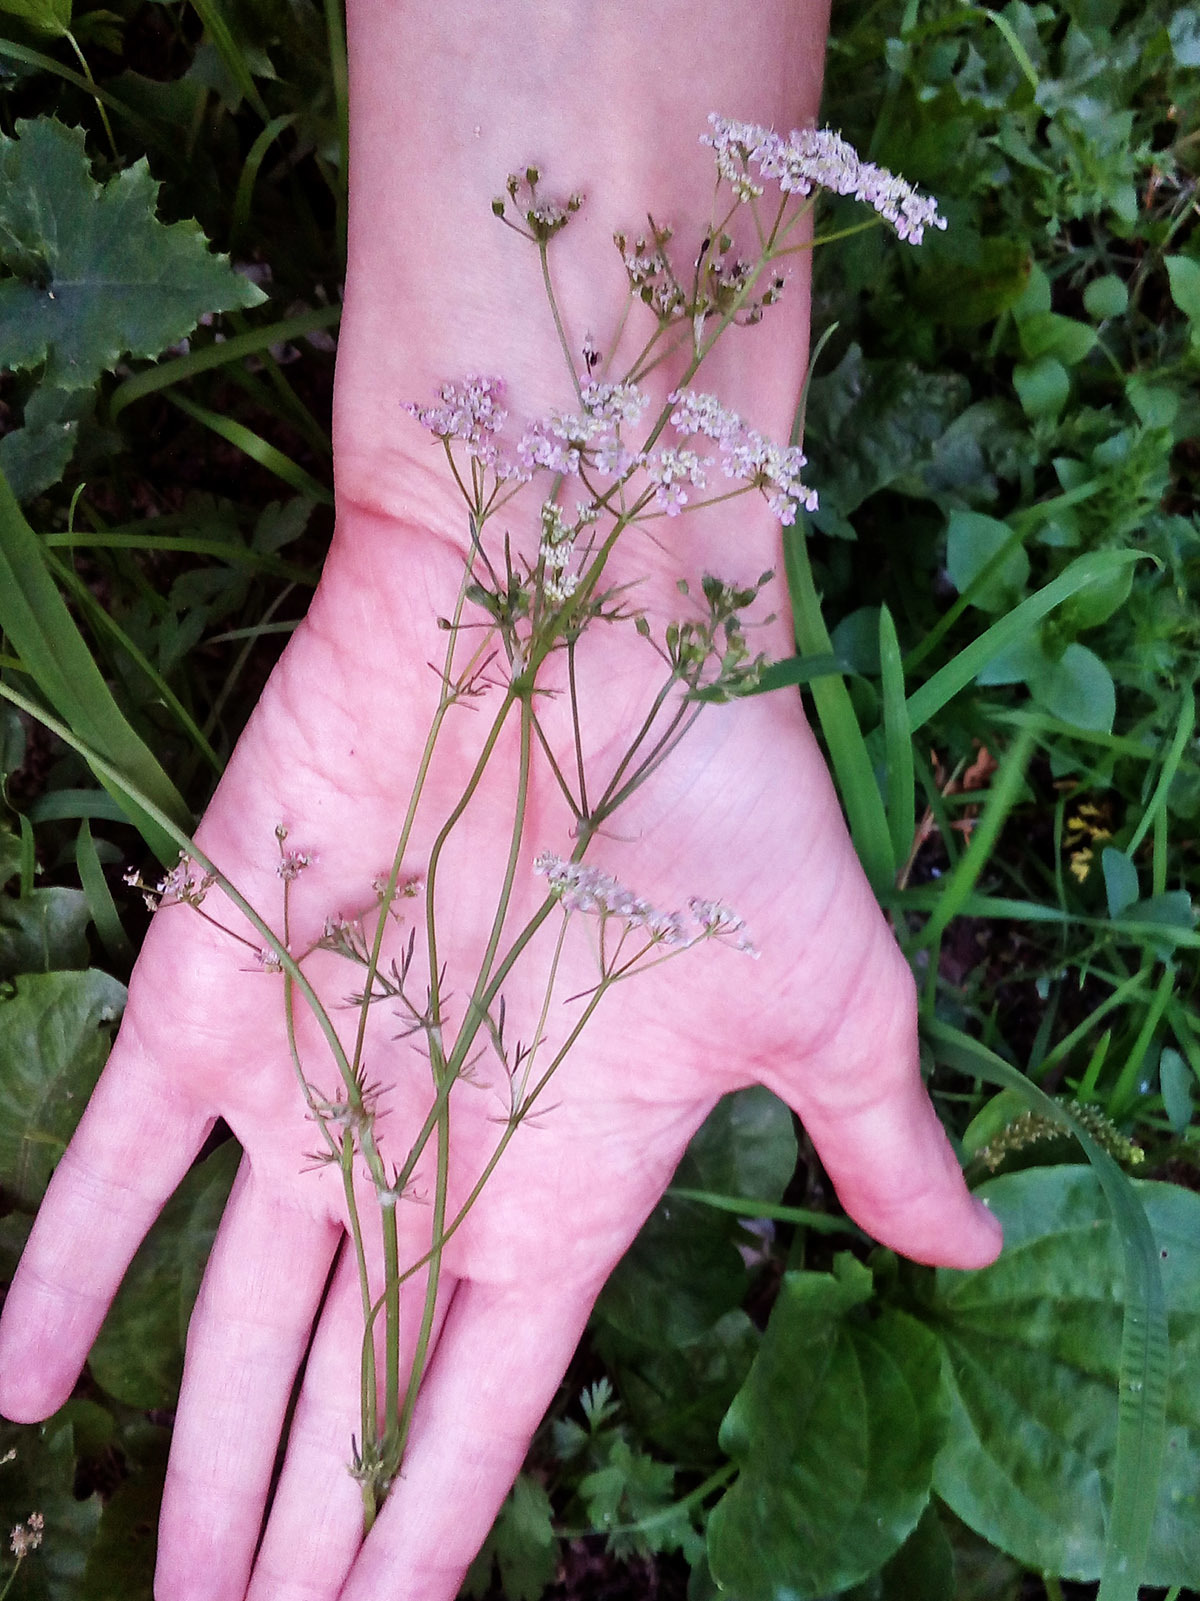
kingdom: Plantae
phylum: Tracheophyta
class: Magnoliopsida
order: Apiales
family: Apiaceae
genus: Carum
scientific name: Carum carvi
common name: Caraway
